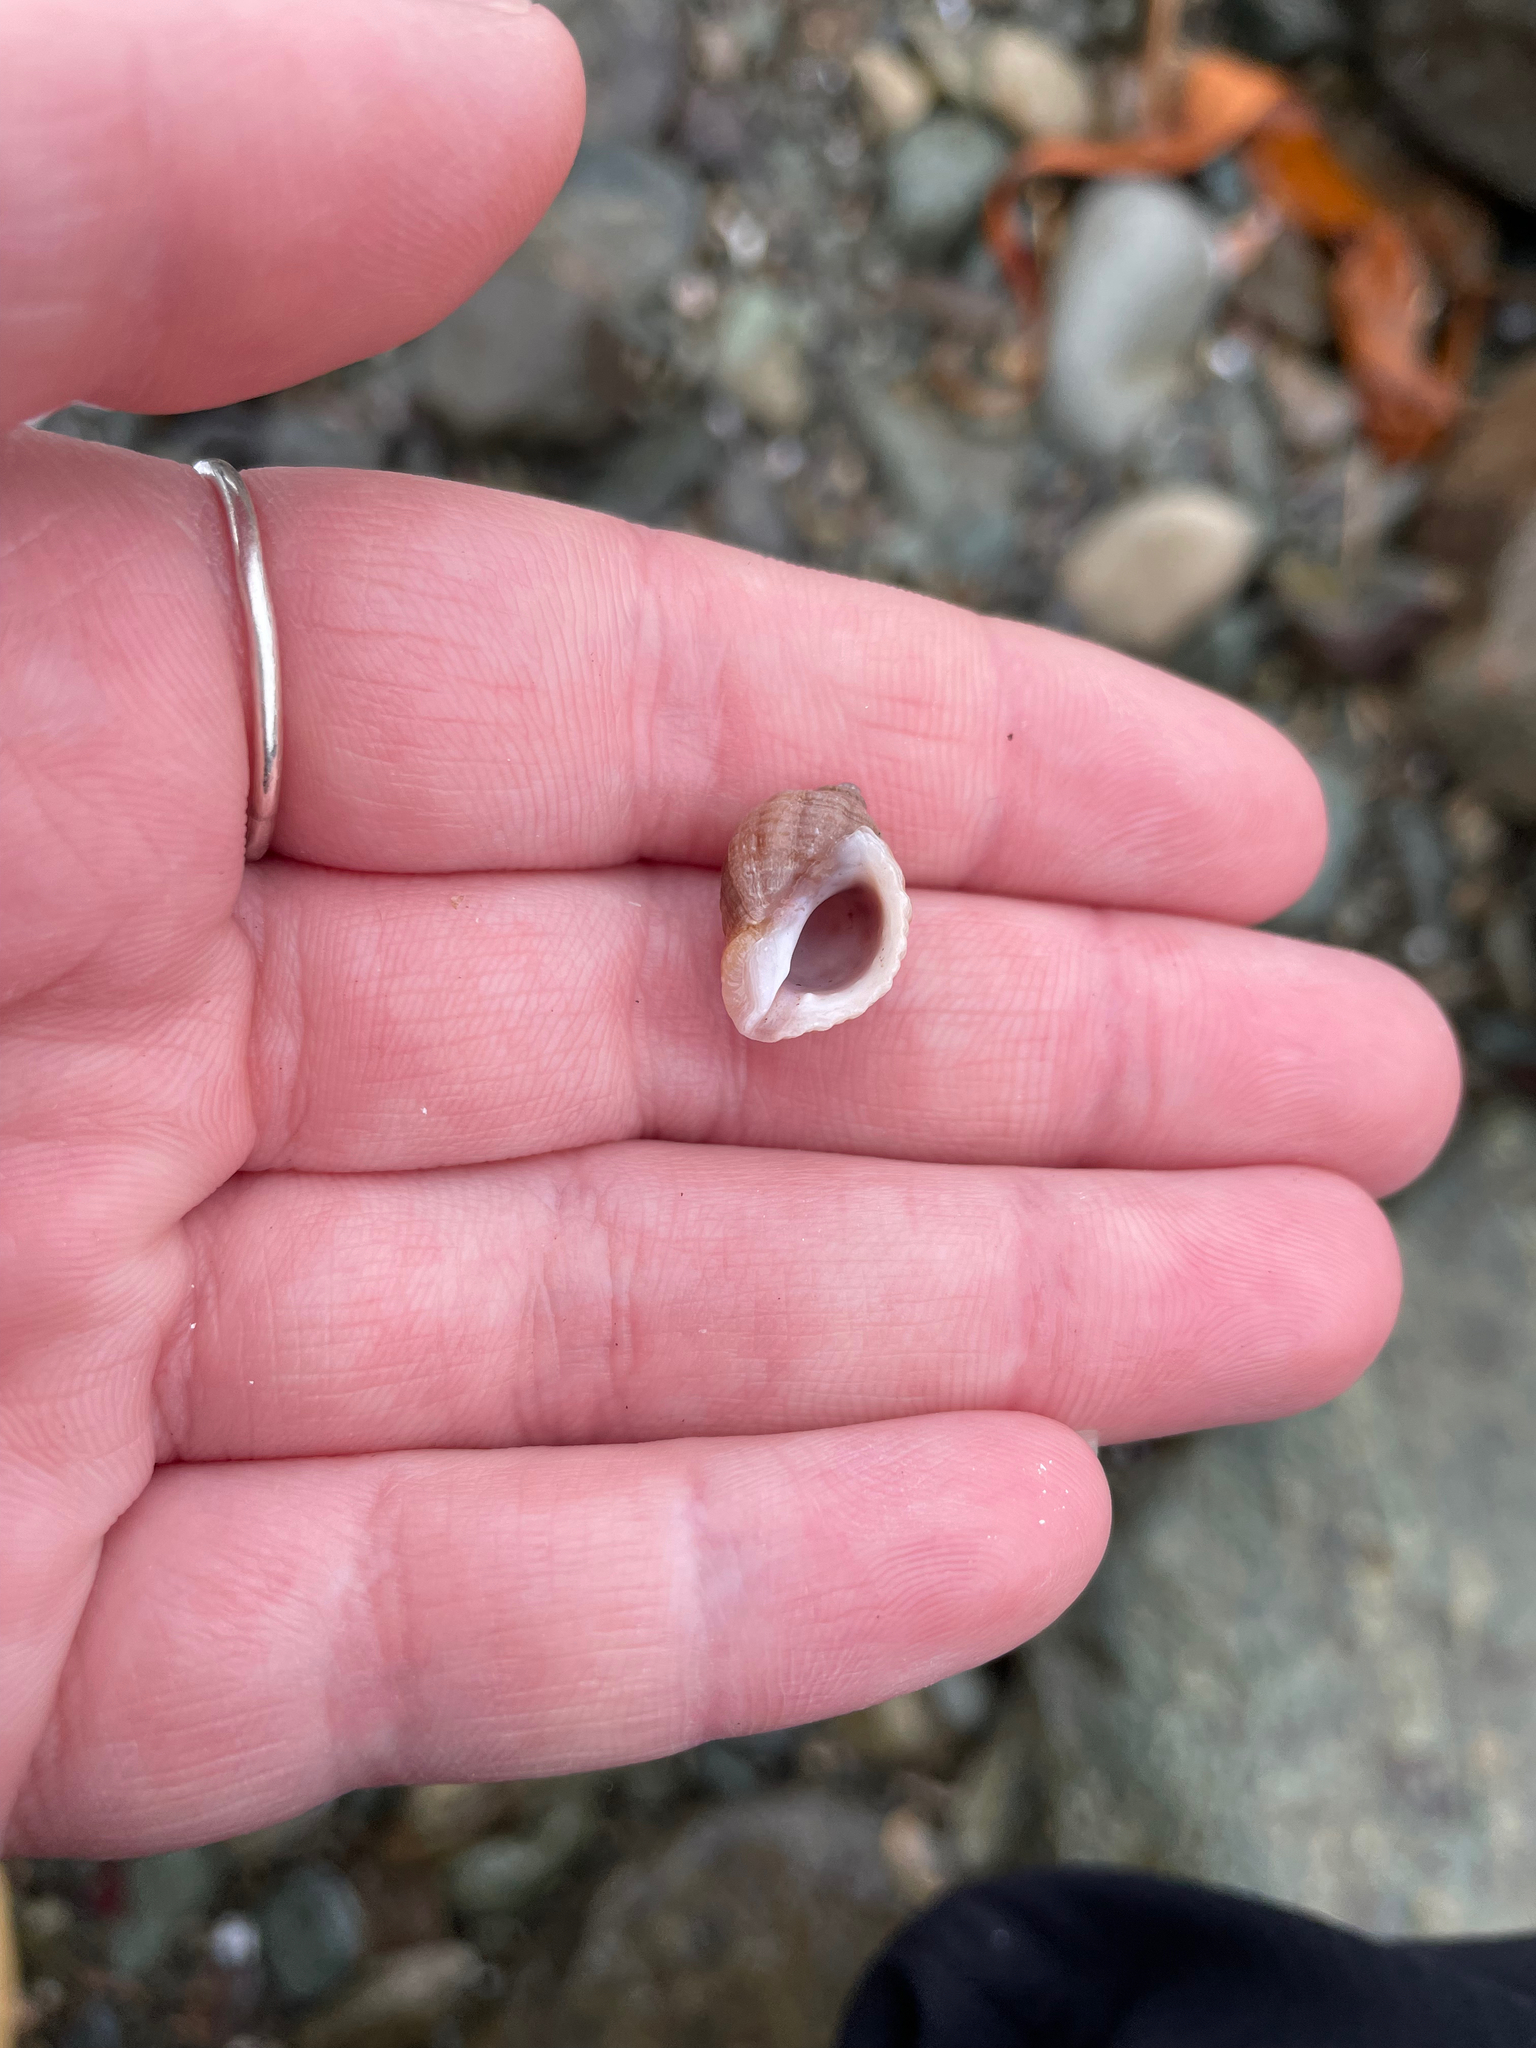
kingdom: Animalia
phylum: Mollusca
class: Gastropoda
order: Neogastropoda
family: Muricidae
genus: Nucella
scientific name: Nucella lapillus
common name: Dog whelk
